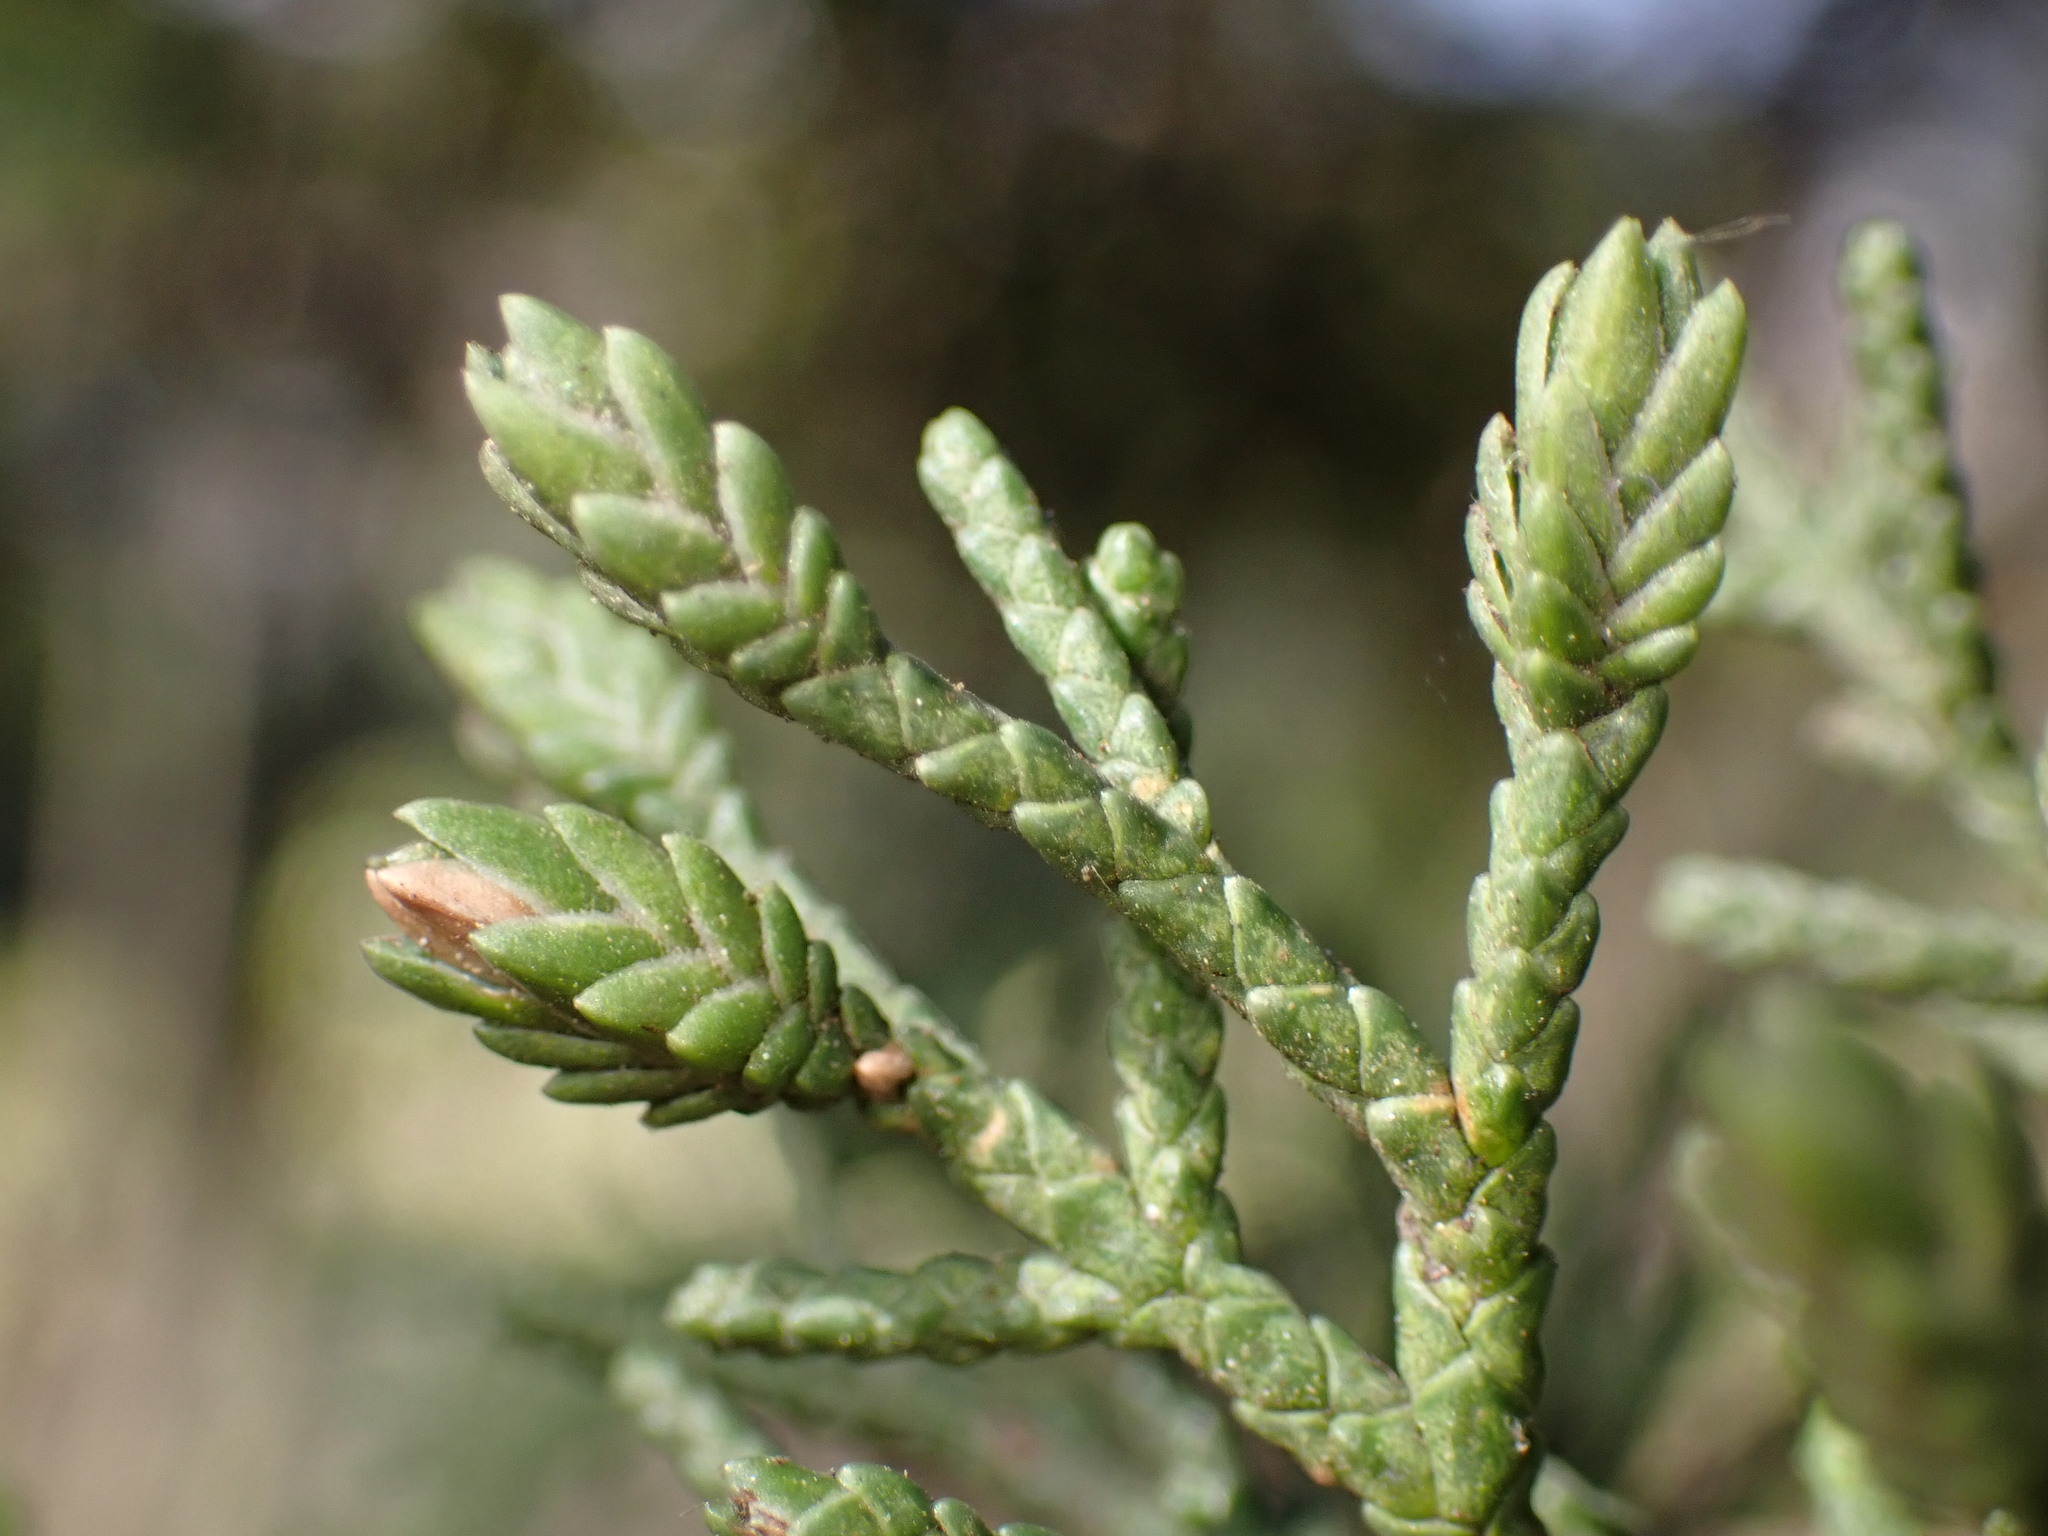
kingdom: Animalia
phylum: Arthropoda
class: Insecta
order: Diptera
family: Cecidomyiidae
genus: Oligotrophus
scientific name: Oligotrophus cupressi
